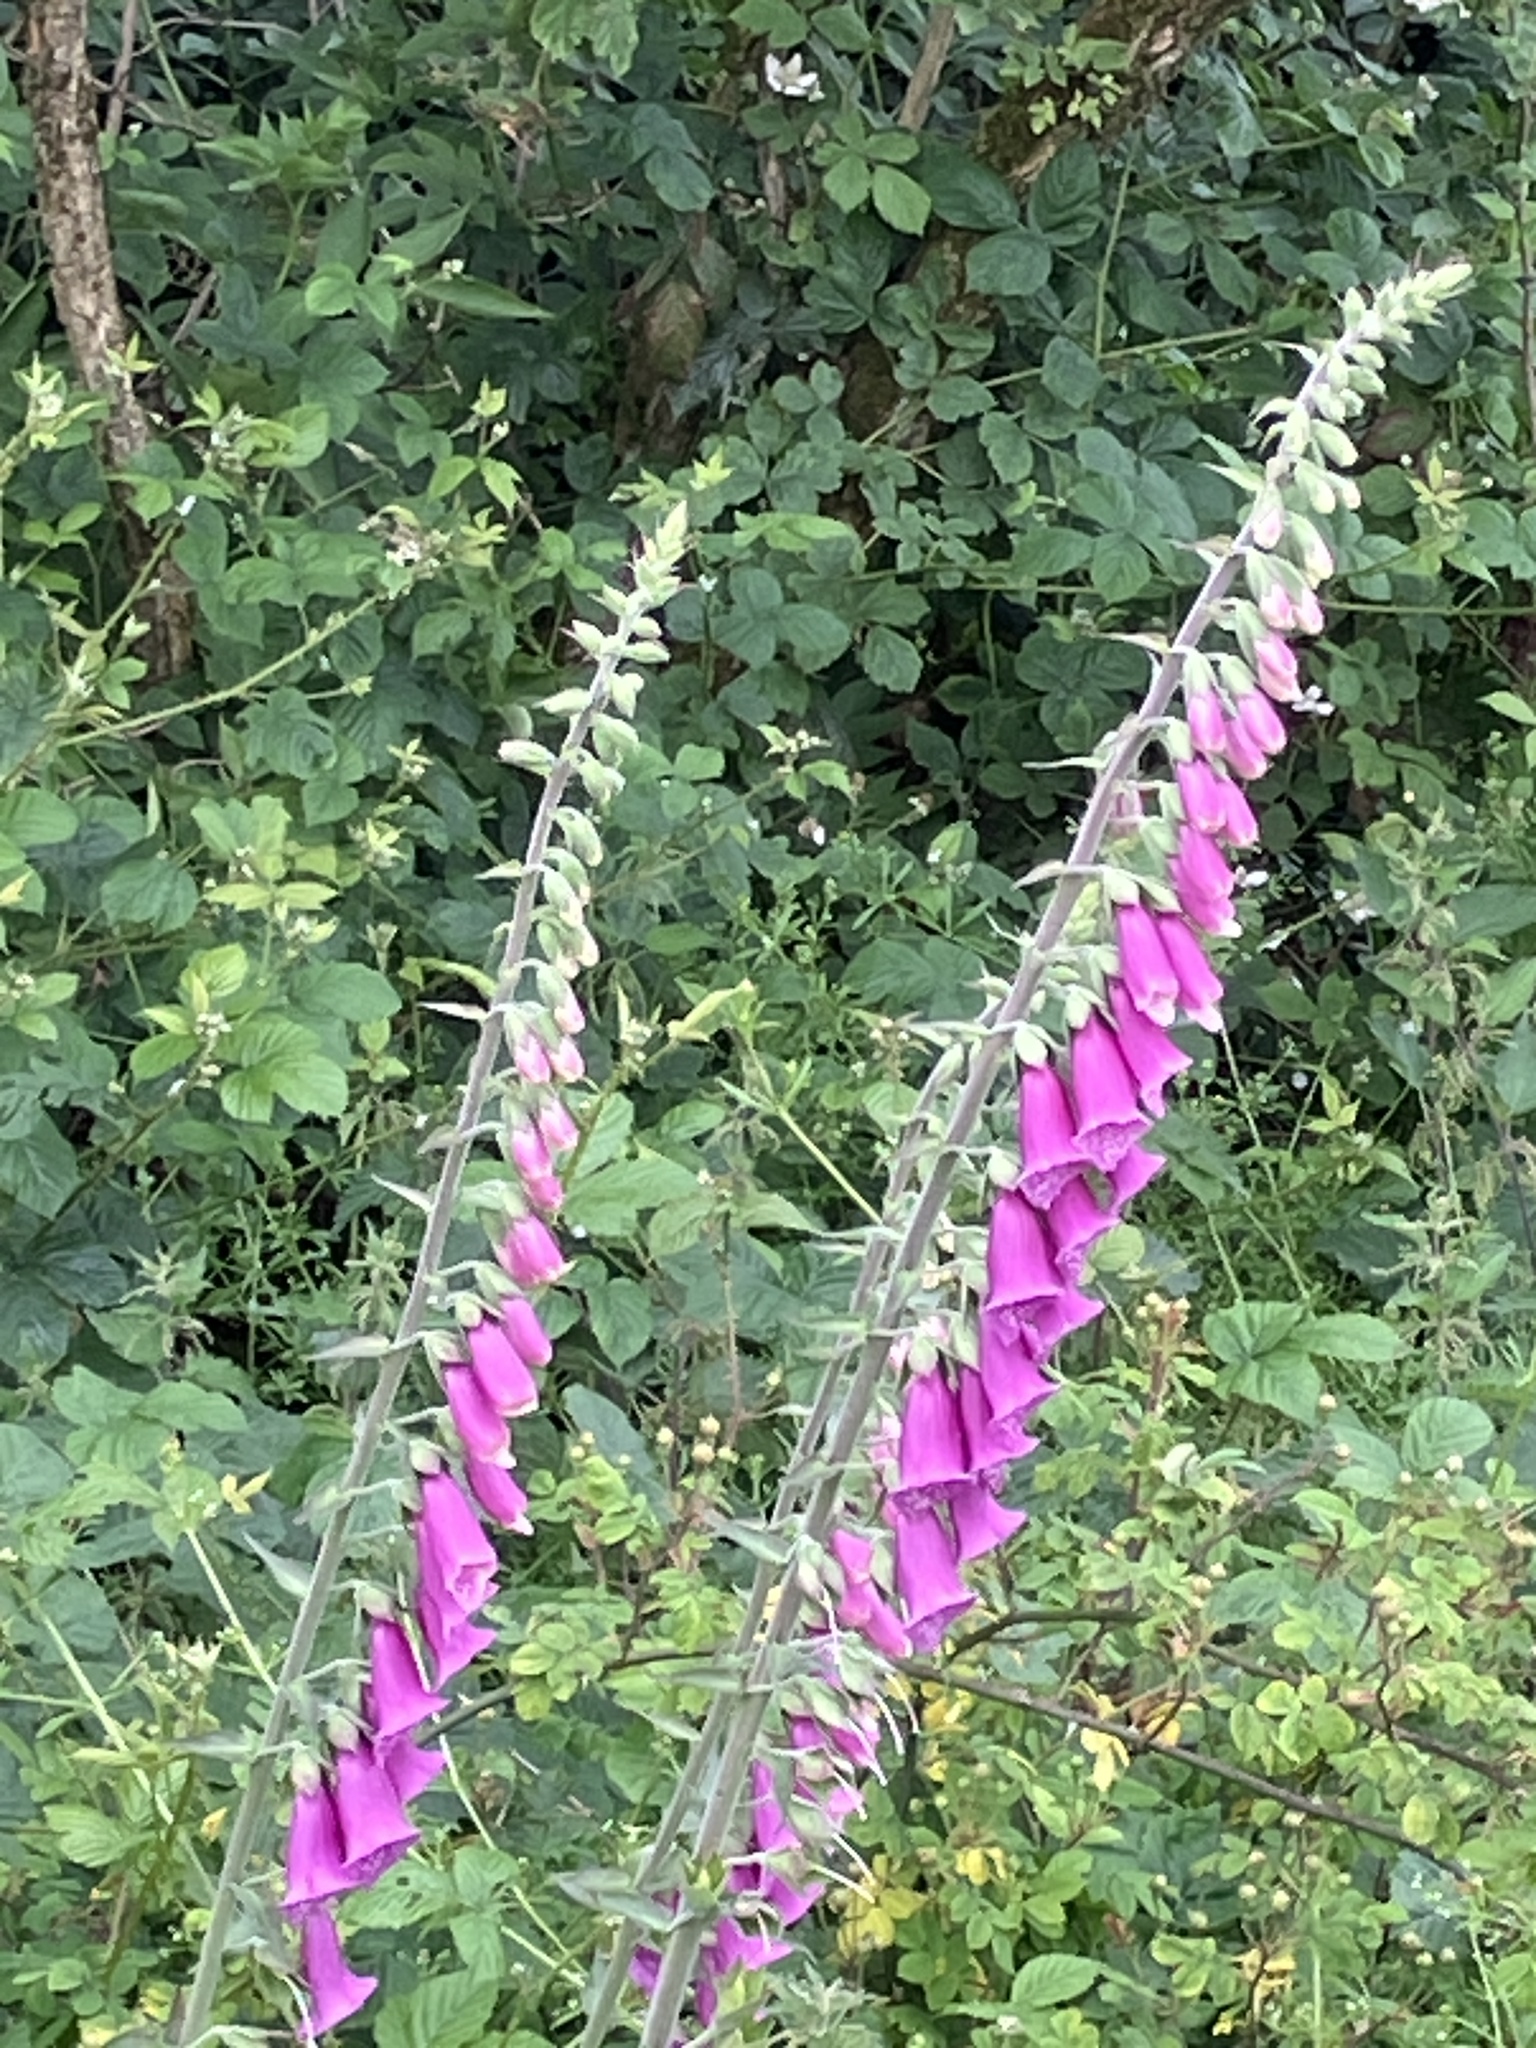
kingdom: Plantae
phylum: Tracheophyta
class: Magnoliopsida
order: Lamiales
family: Plantaginaceae
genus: Digitalis
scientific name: Digitalis purpurea
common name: Foxglove
